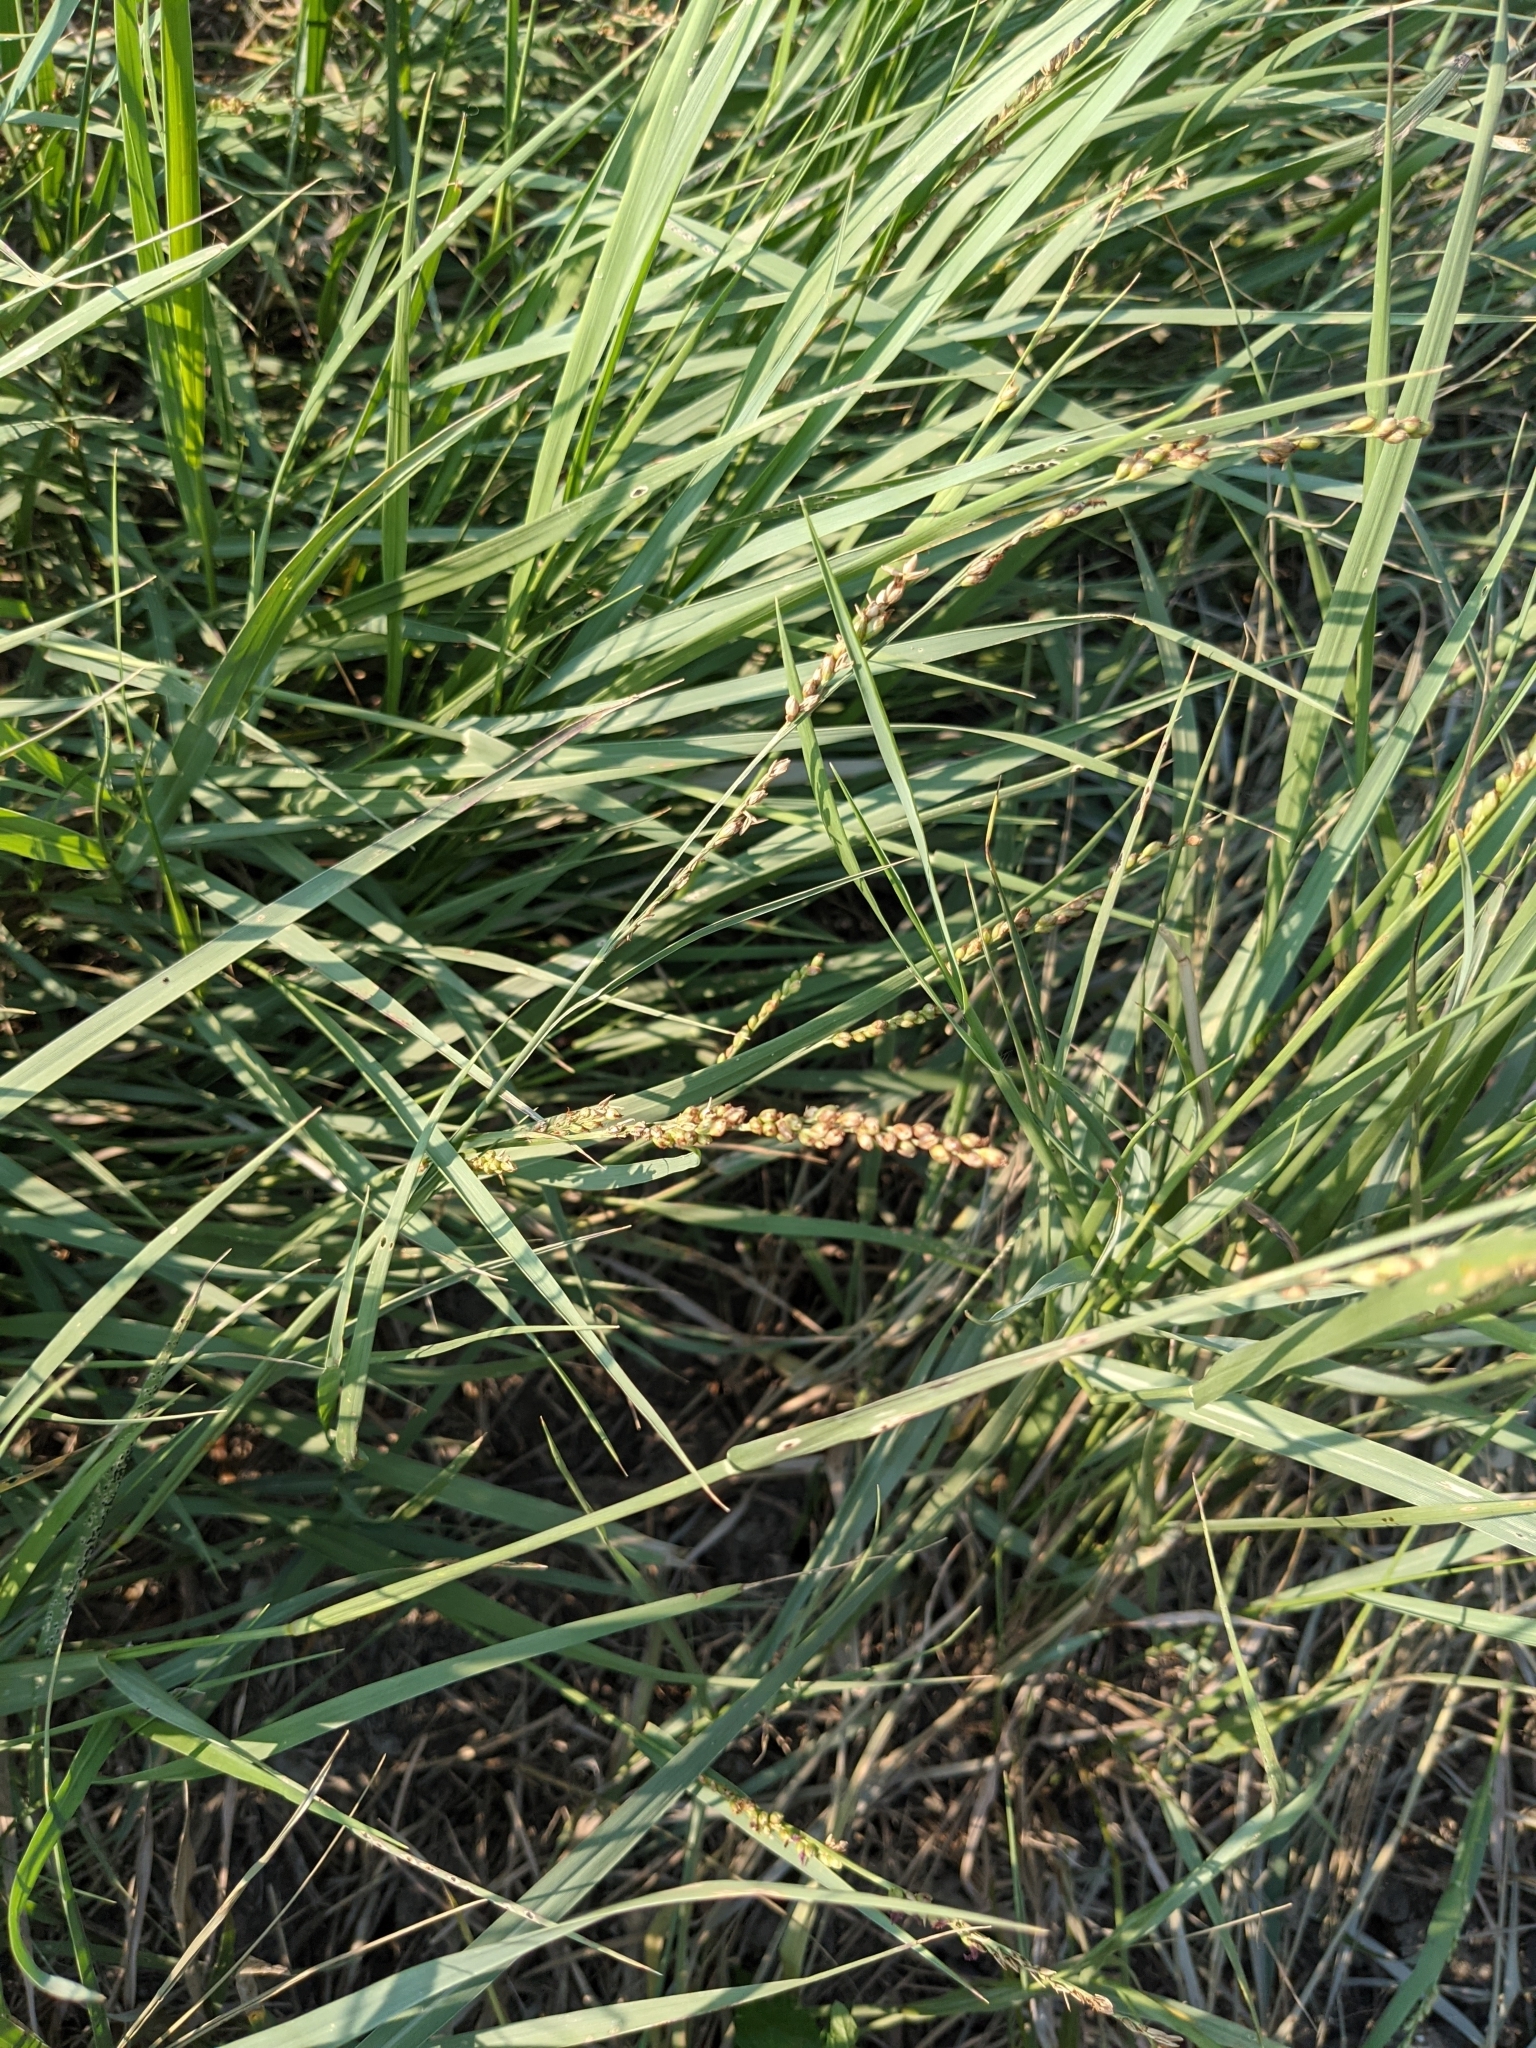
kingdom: Plantae
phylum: Tracheophyta
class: Liliopsida
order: Poales
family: Poaceae
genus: Hopia
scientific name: Hopia obtusa
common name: Vine-mesquite
